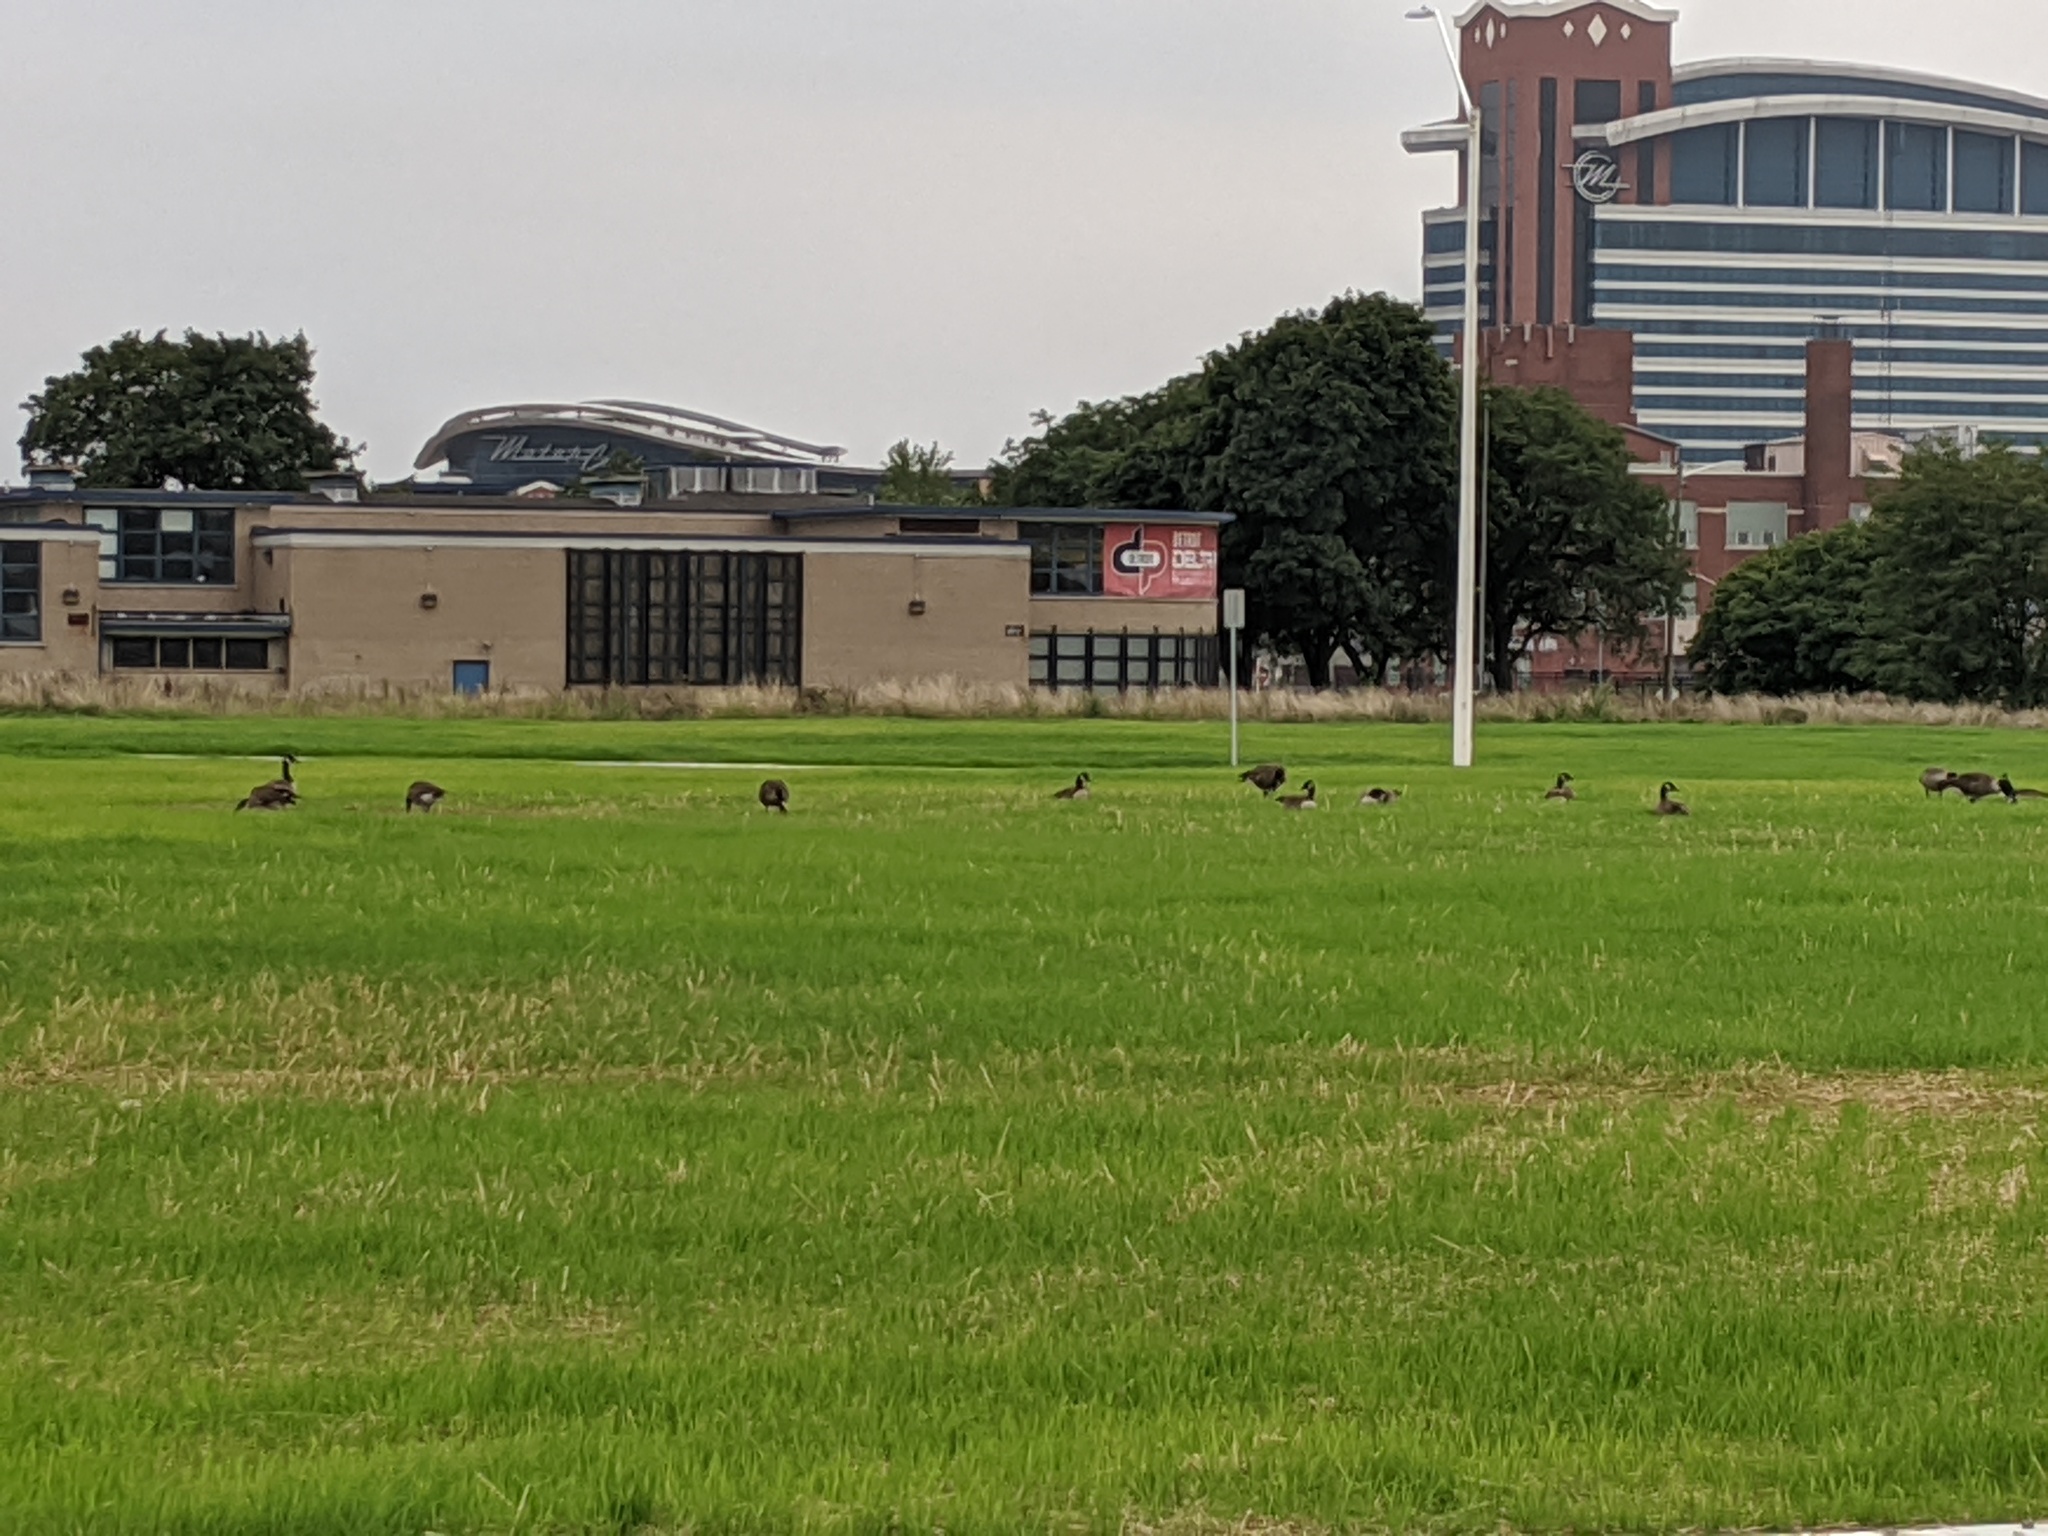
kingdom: Animalia
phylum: Chordata
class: Aves
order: Anseriformes
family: Anatidae
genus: Branta
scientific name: Branta canadensis
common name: Canada goose
